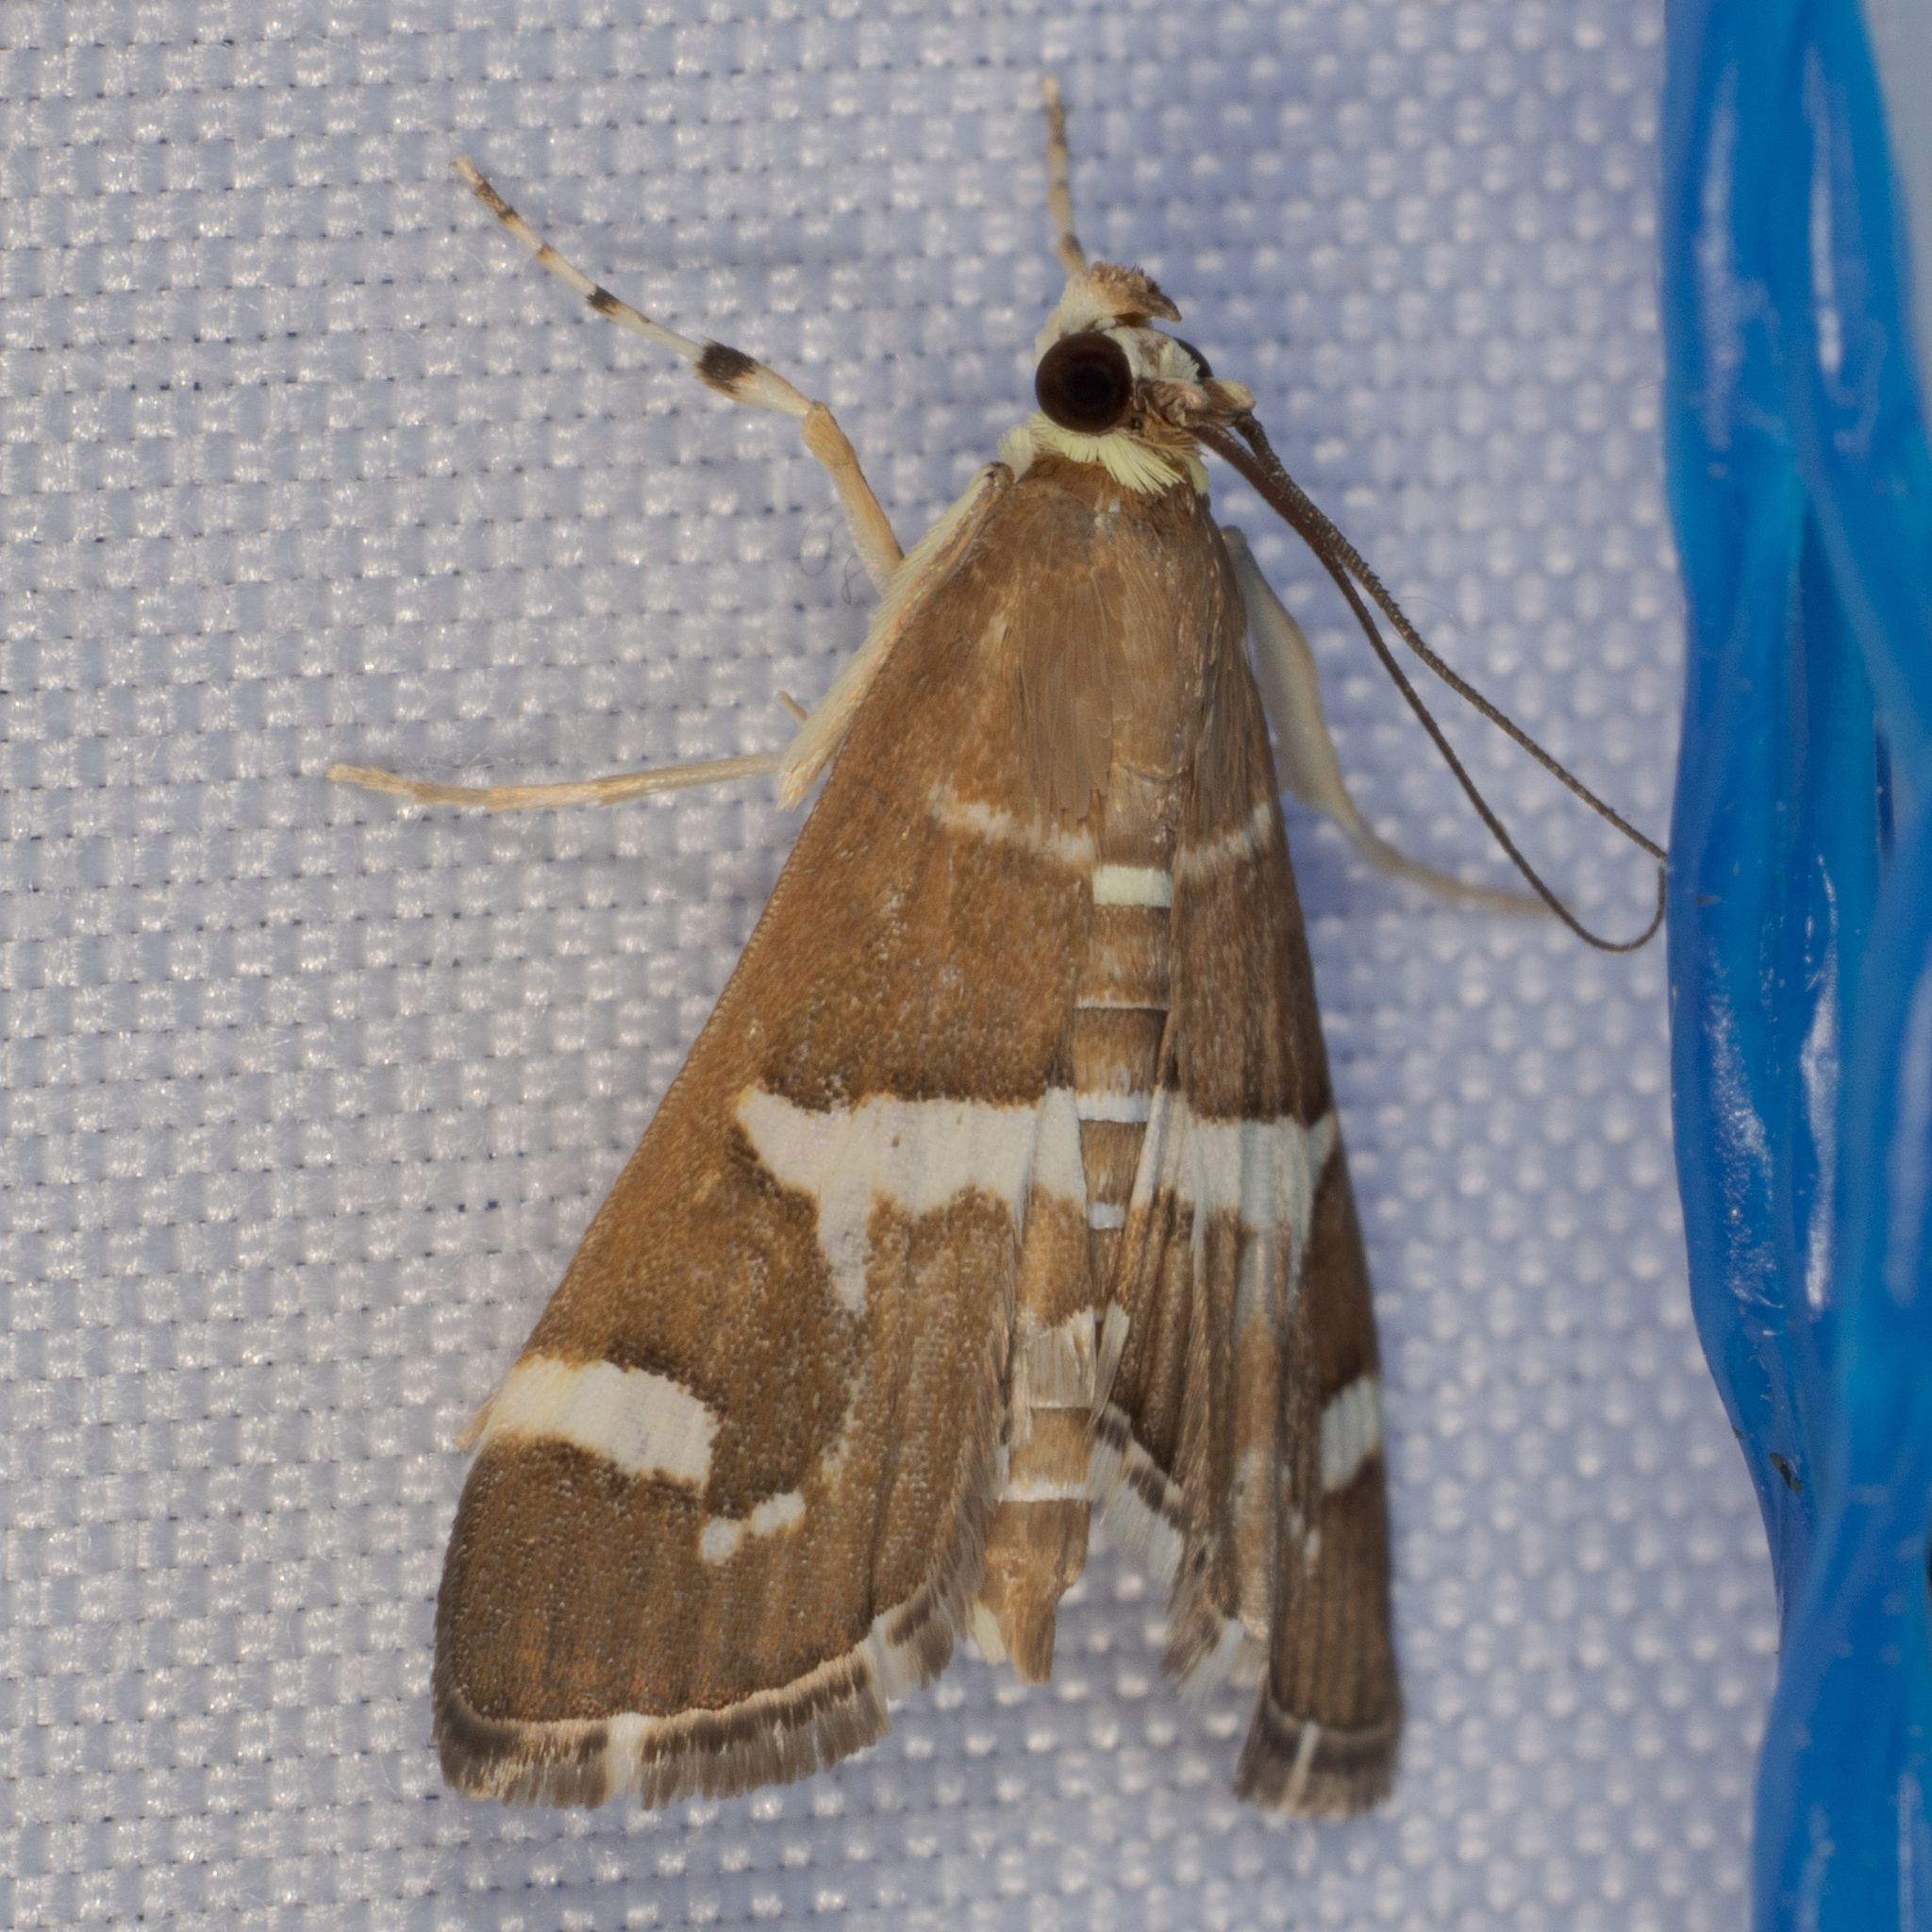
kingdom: Animalia
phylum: Arthropoda
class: Insecta
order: Lepidoptera
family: Crambidae
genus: Spoladea
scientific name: Spoladea recurvalis
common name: Beet webworm moth
